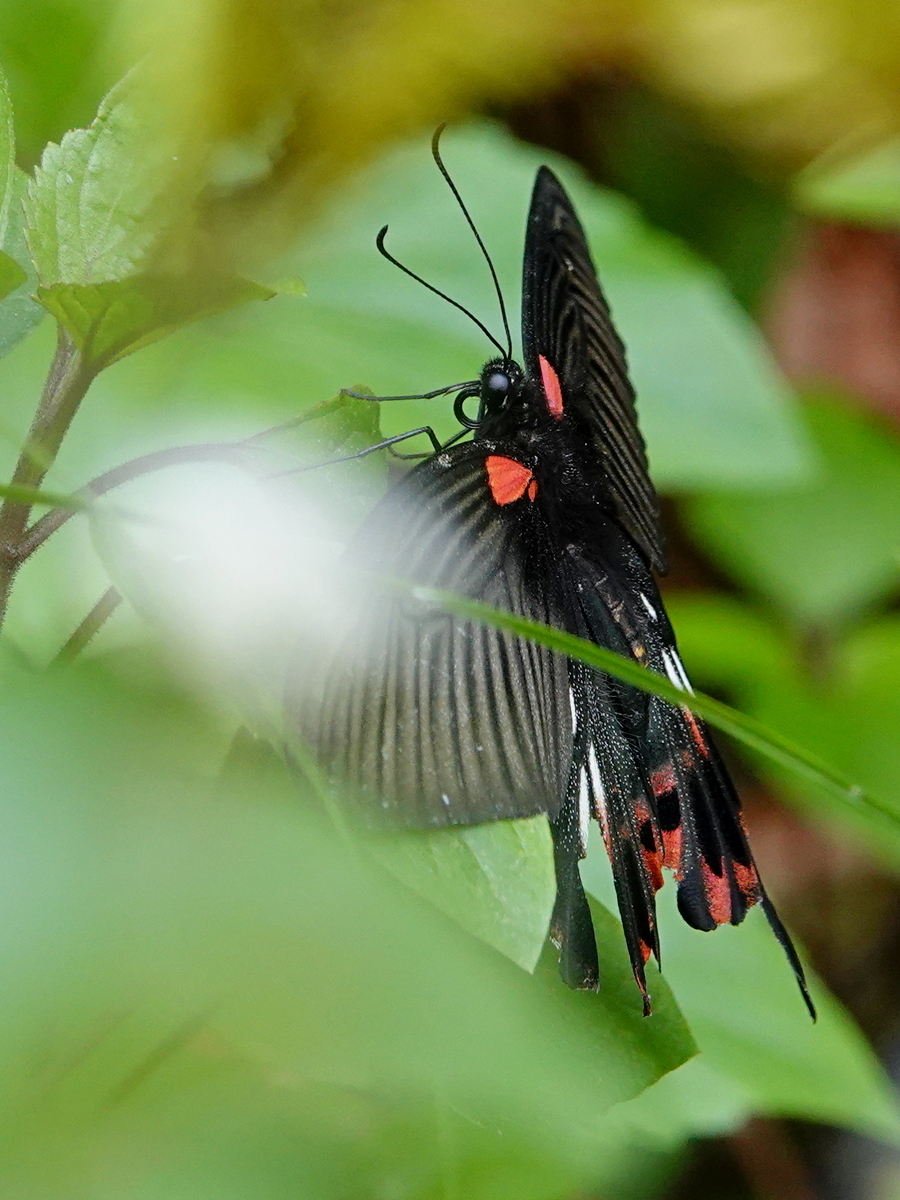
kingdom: Animalia
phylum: Arthropoda
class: Insecta
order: Lepidoptera
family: Papilionidae
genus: Papilio
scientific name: Papilio memnon
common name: Great mormon
